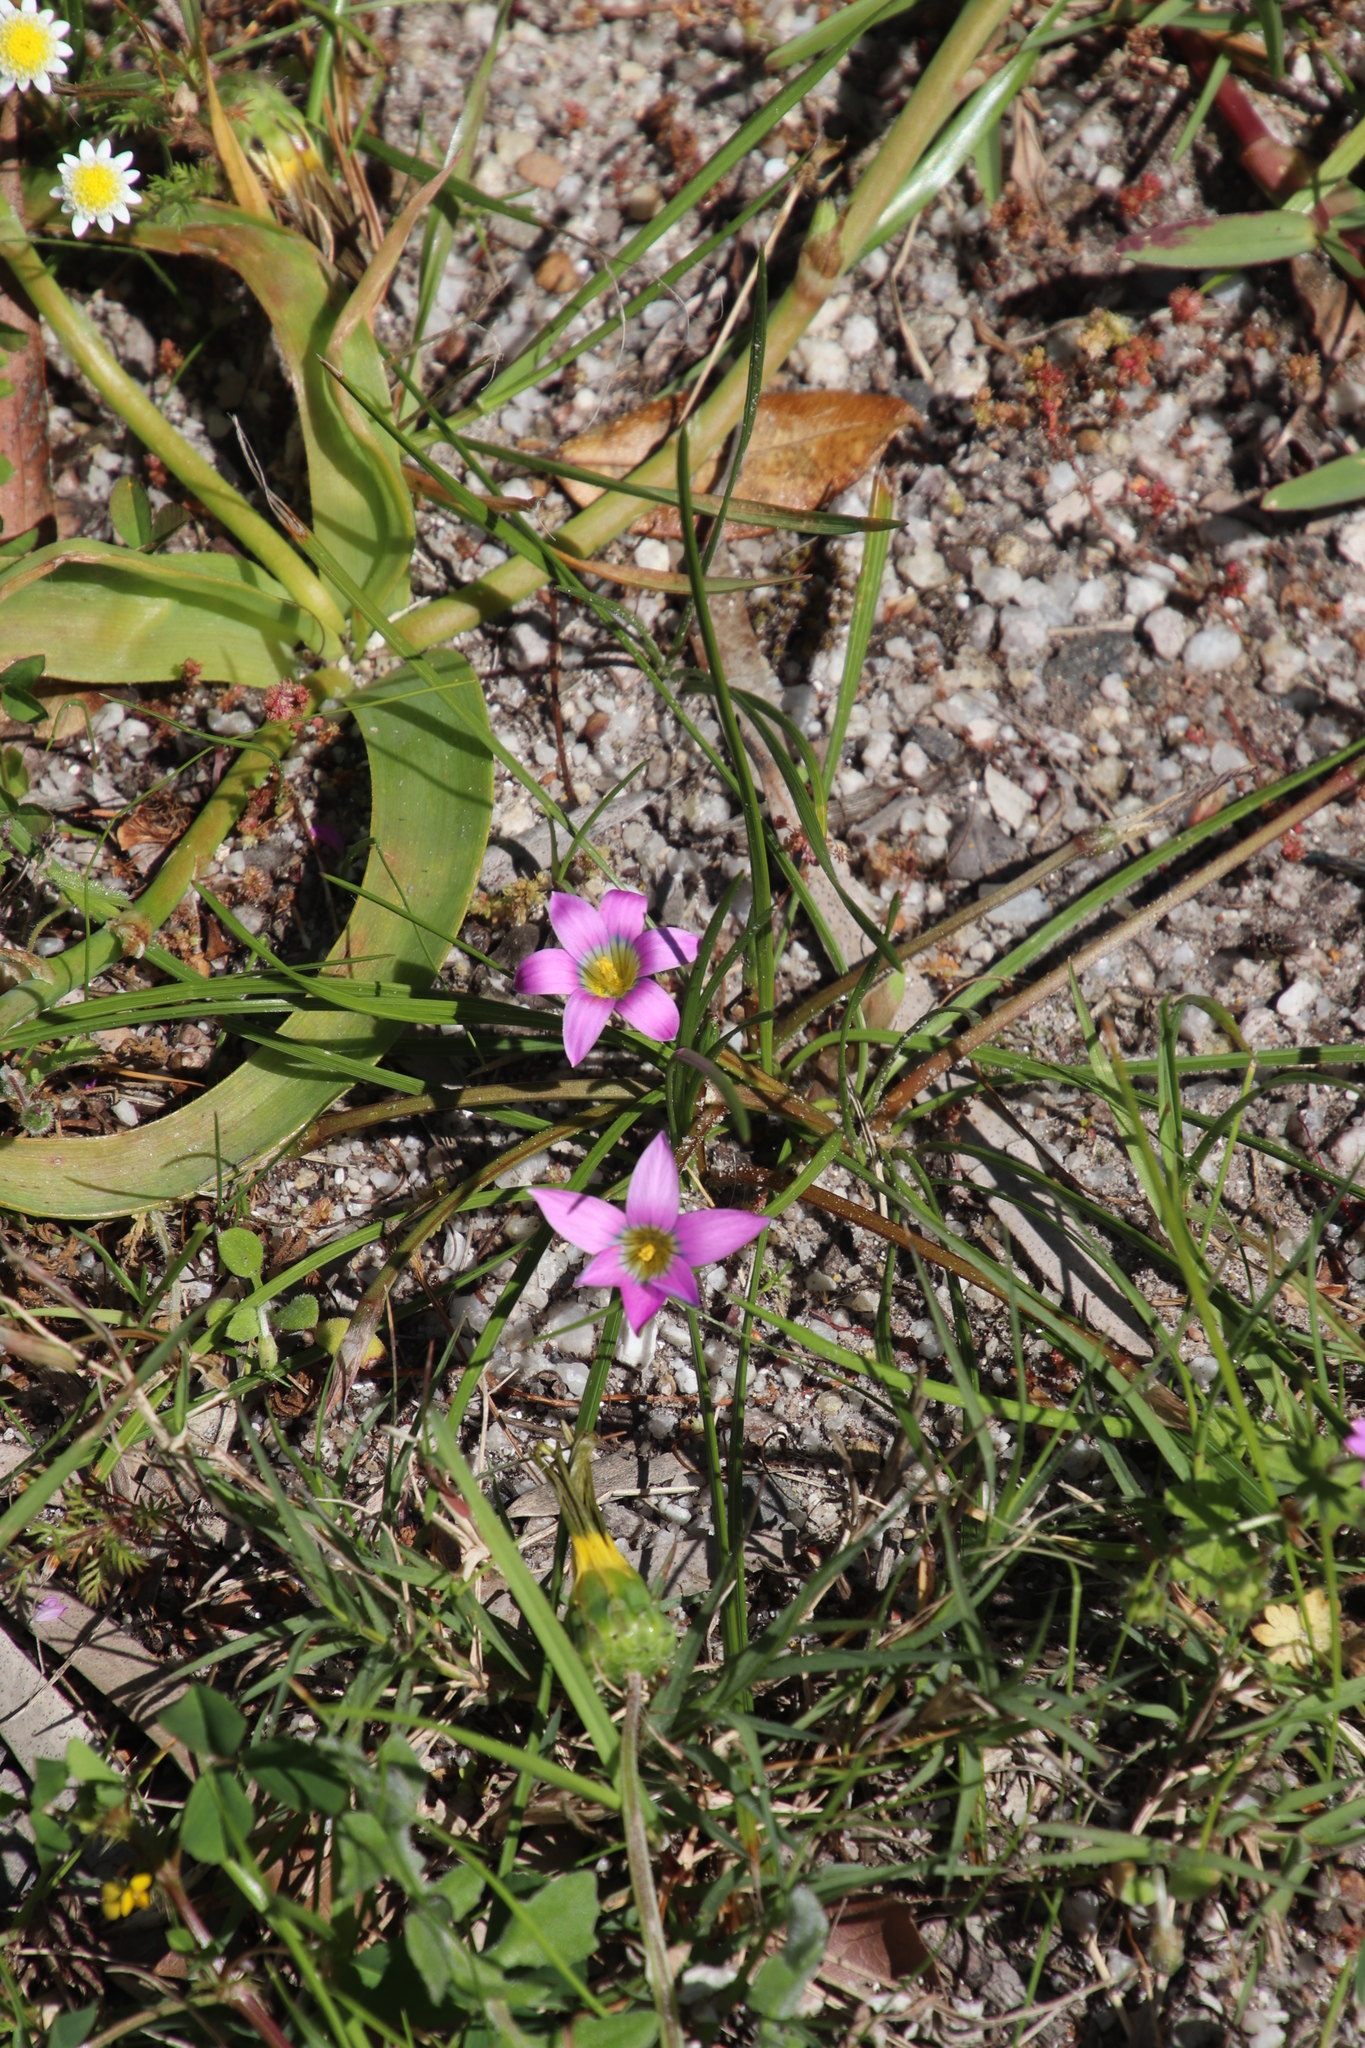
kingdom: Plantae
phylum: Tracheophyta
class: Liliopsida
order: Asparagales
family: Asphodelaceae
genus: Trachyandra
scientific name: Trachyandra ciliata
